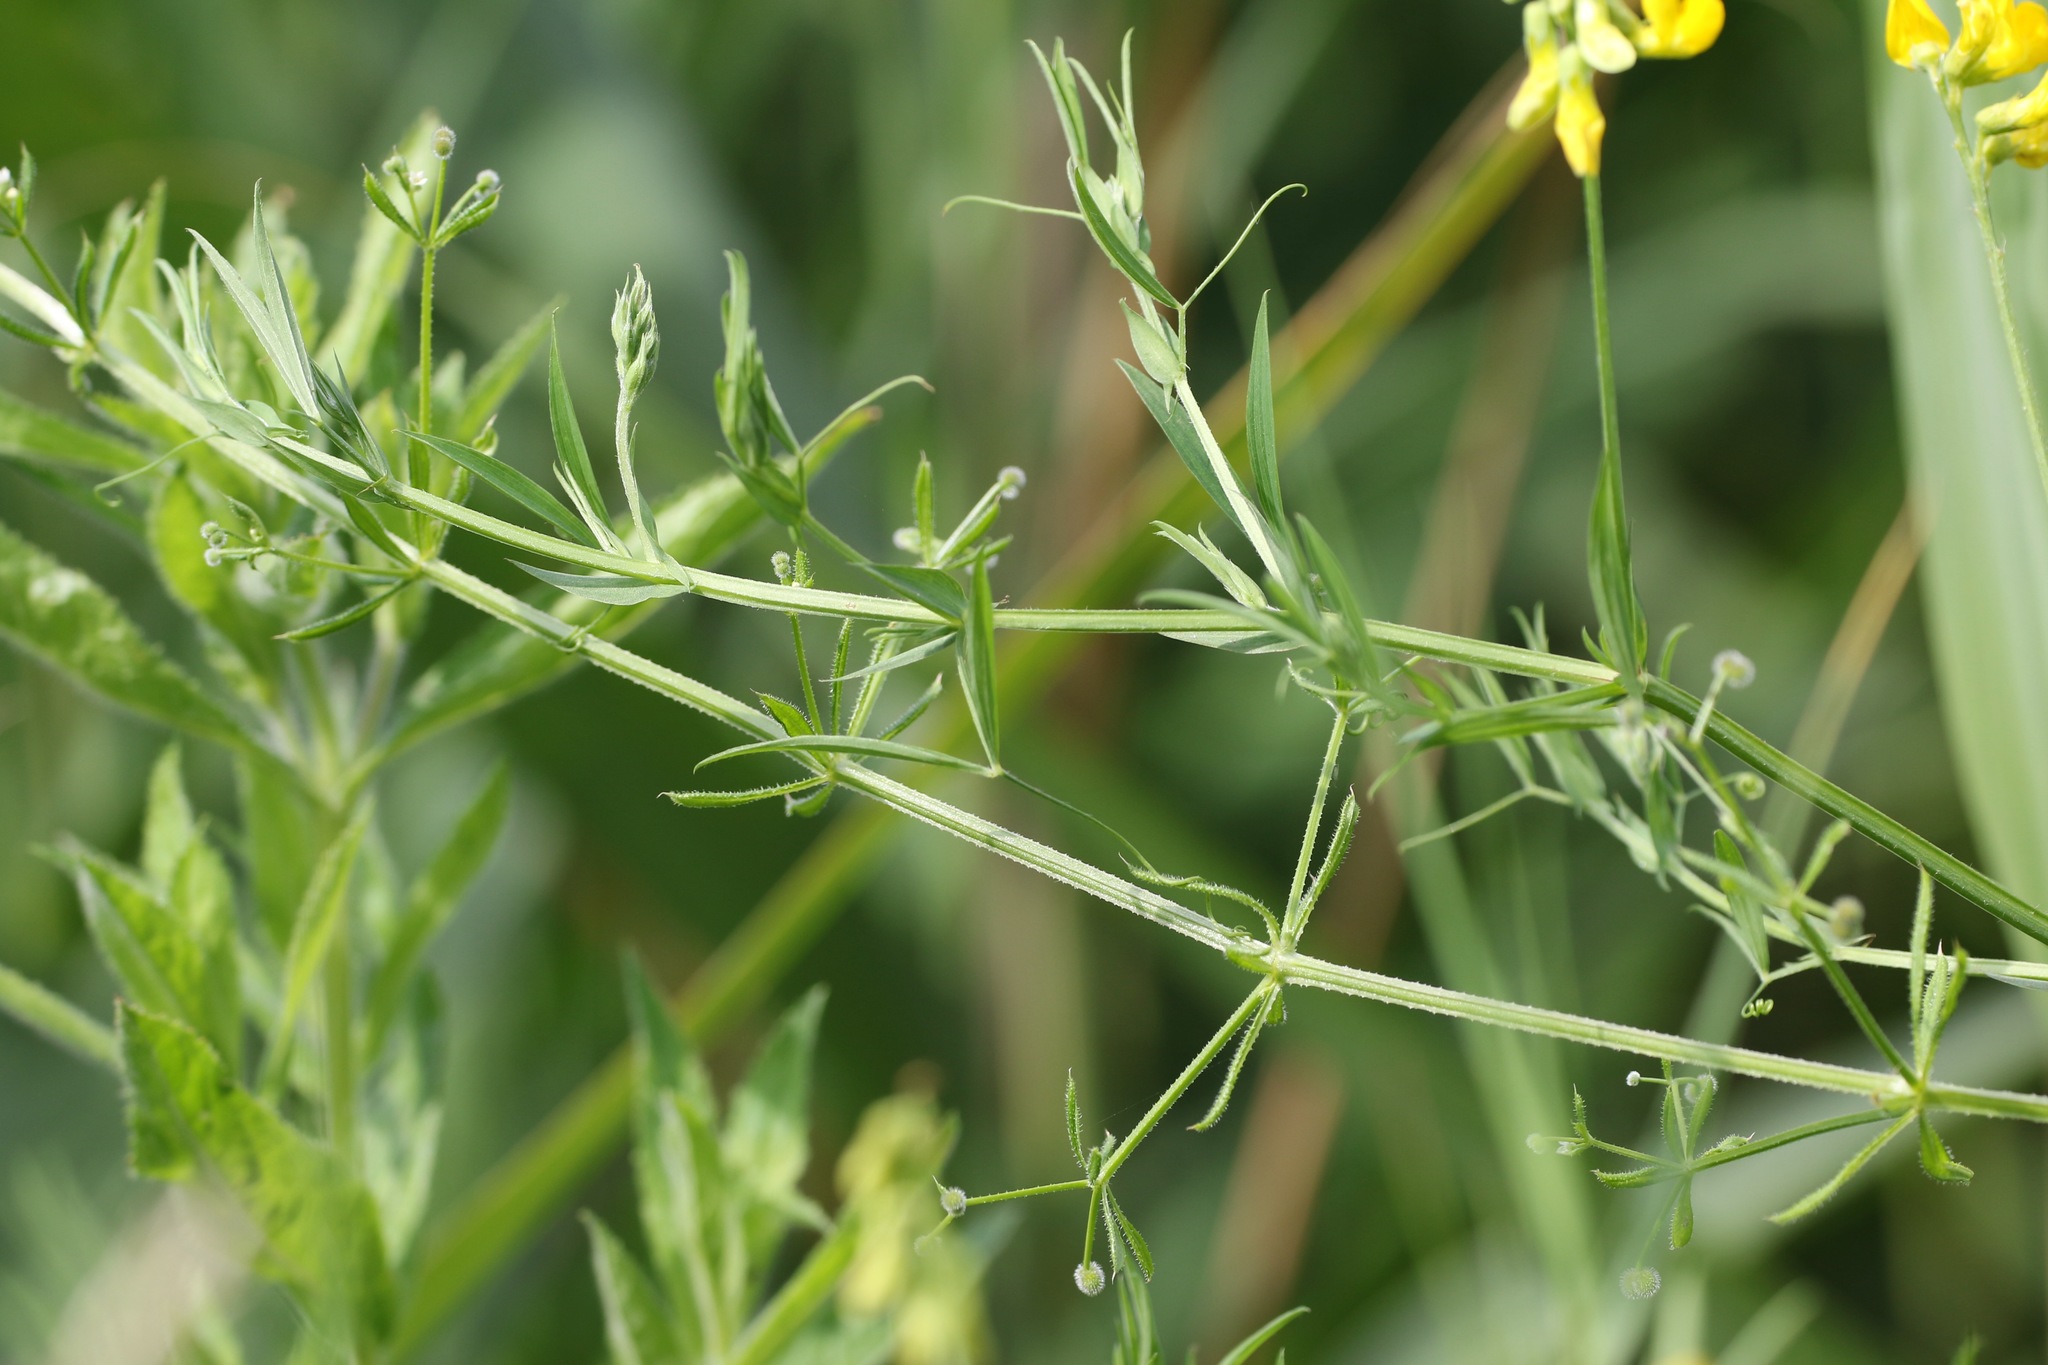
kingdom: Plantae
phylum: Tracheophyta
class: Magnoliopsida
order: Fabales
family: Fabaceae
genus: Lathyrus
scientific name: Lathyrus pratensis
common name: Meadow vetchling
